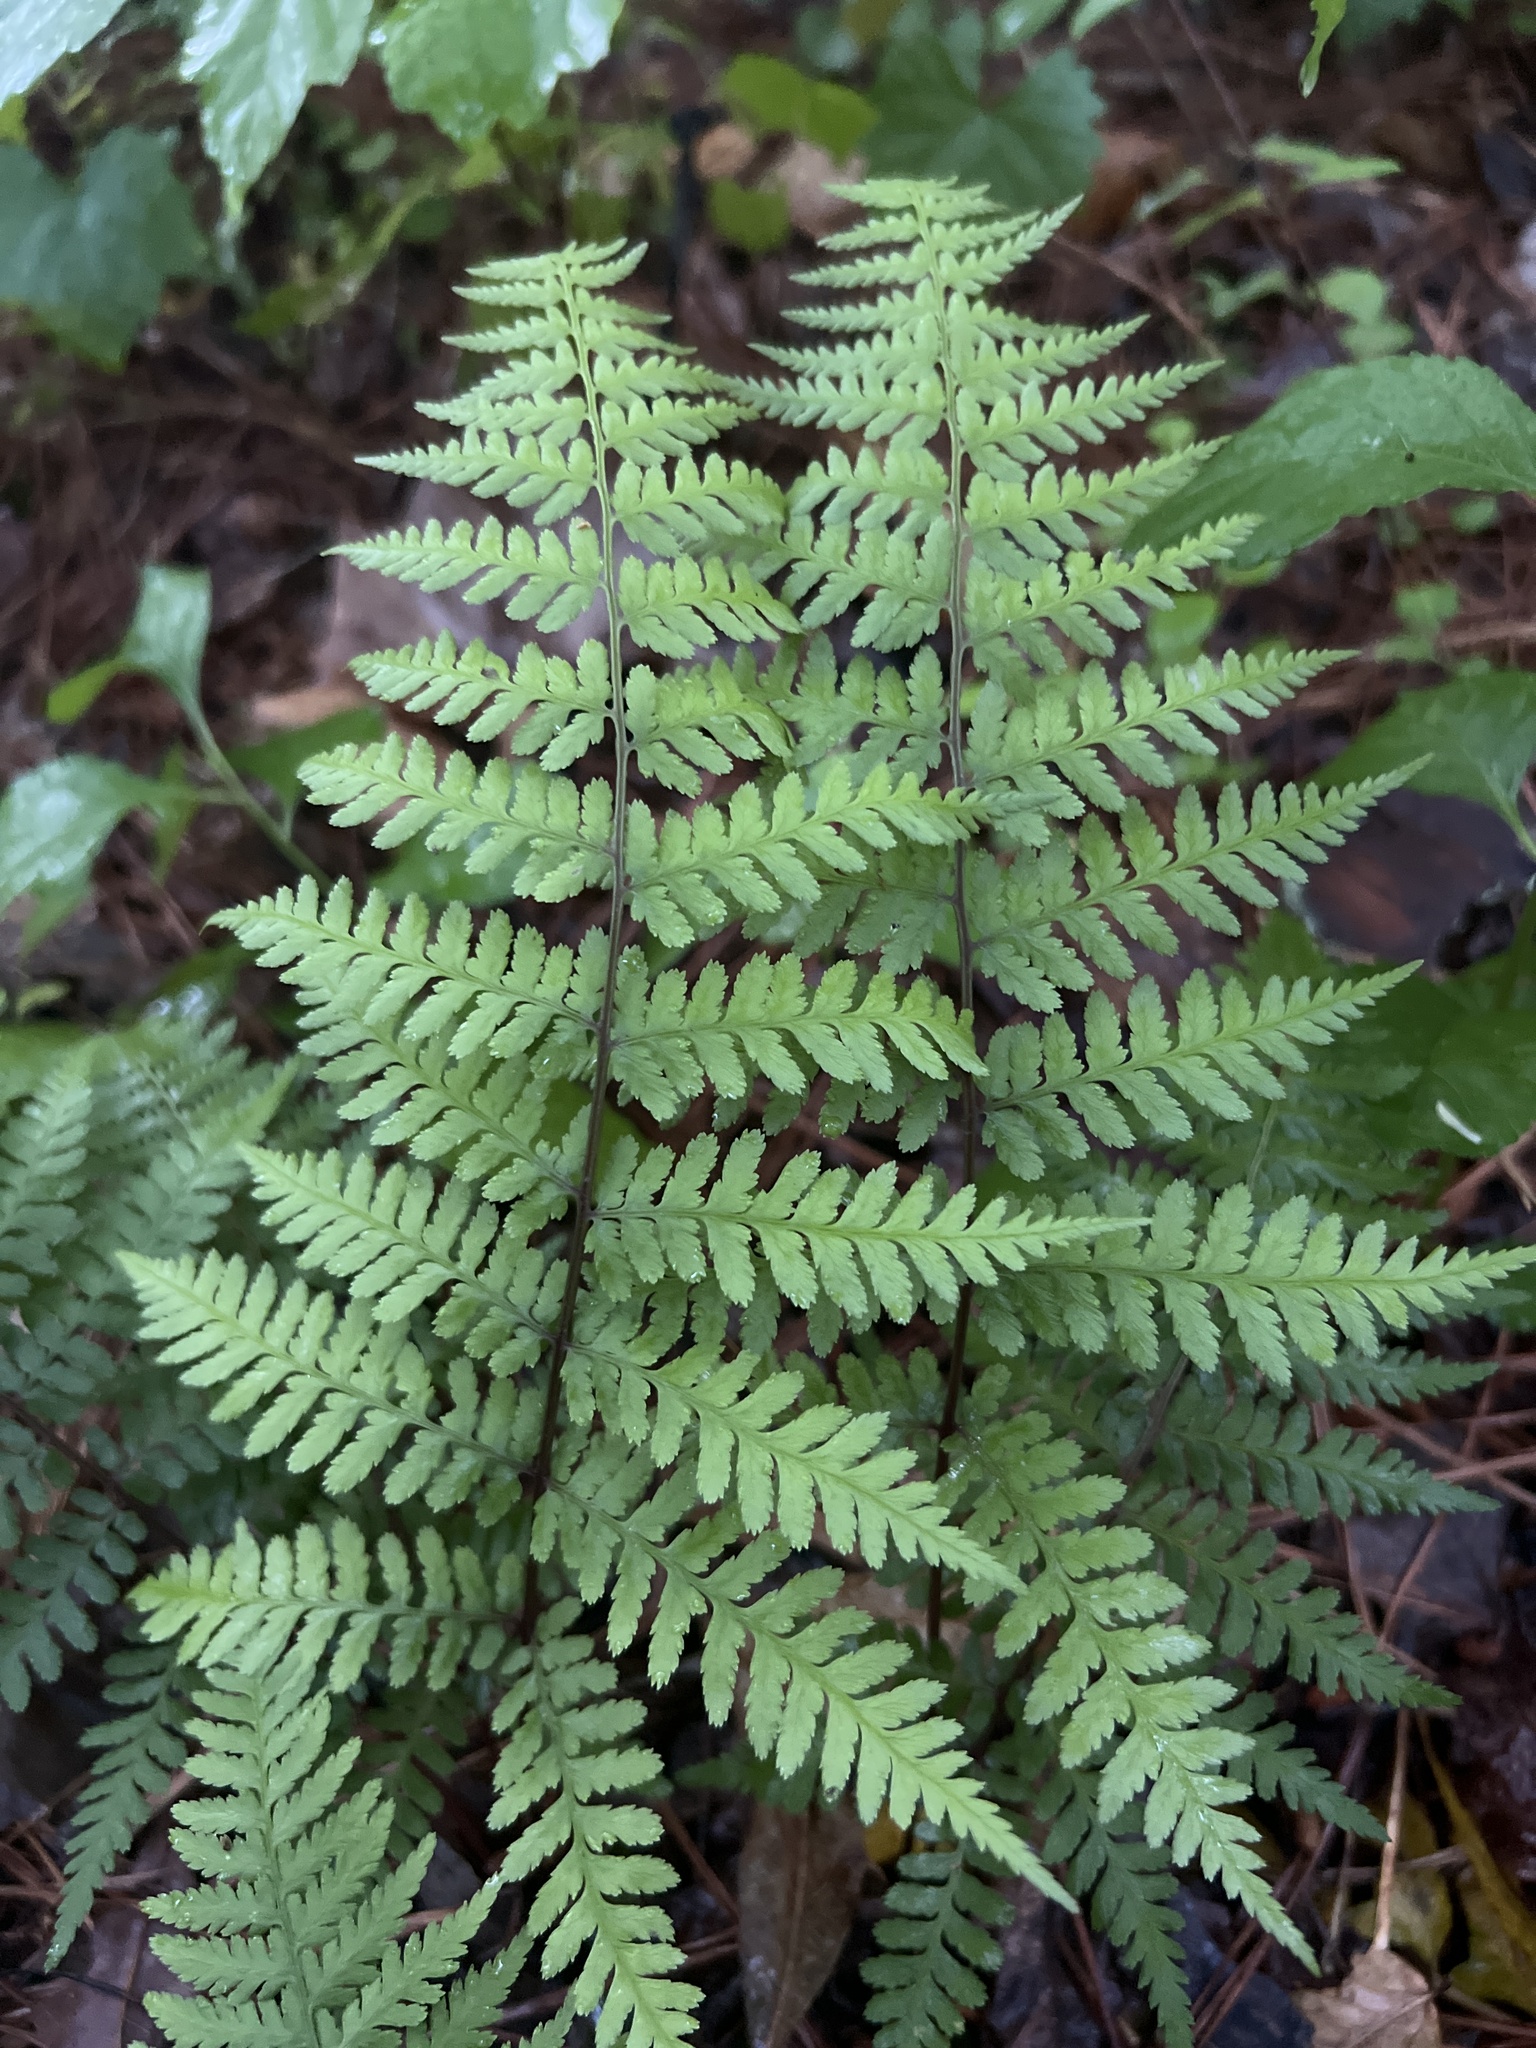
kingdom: Plantae
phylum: Tracheophyta
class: Polypodiopsida
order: Polypodiales
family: Athyriaceae
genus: Athyrium
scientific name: Athyrium asplenioides
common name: Southern lady fern
